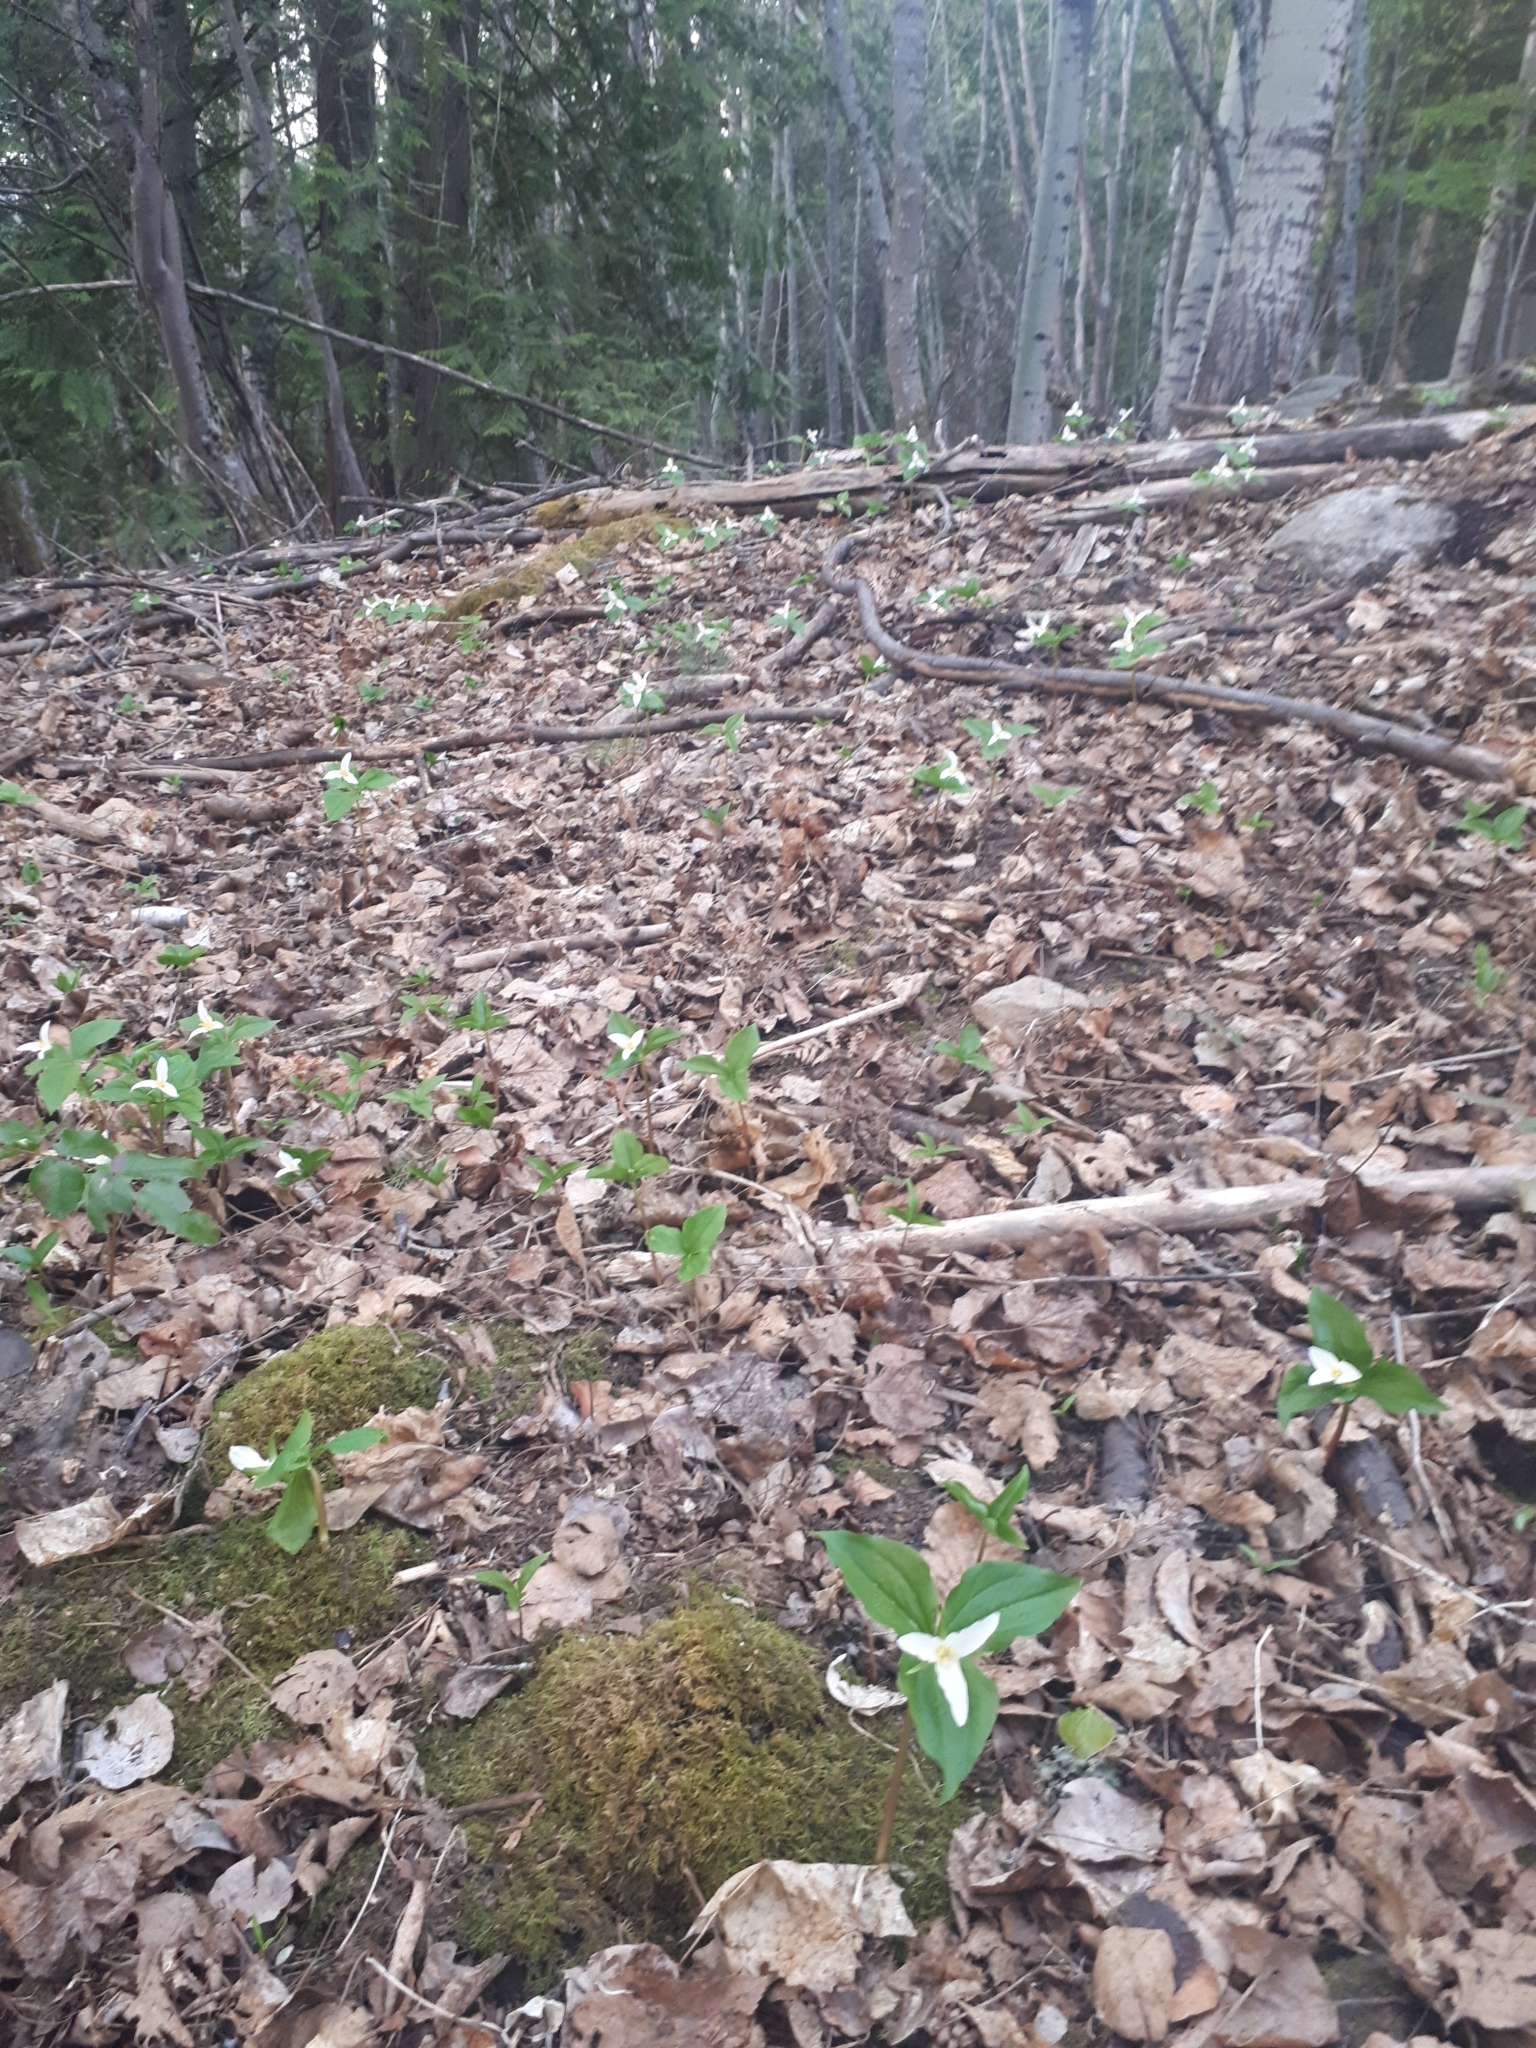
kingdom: Plantae
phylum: Tracheophyta
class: Liliopsida
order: Liliales
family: Melanthiaceae
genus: Trillium
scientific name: Trillium ovatum
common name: Pacific trillium
